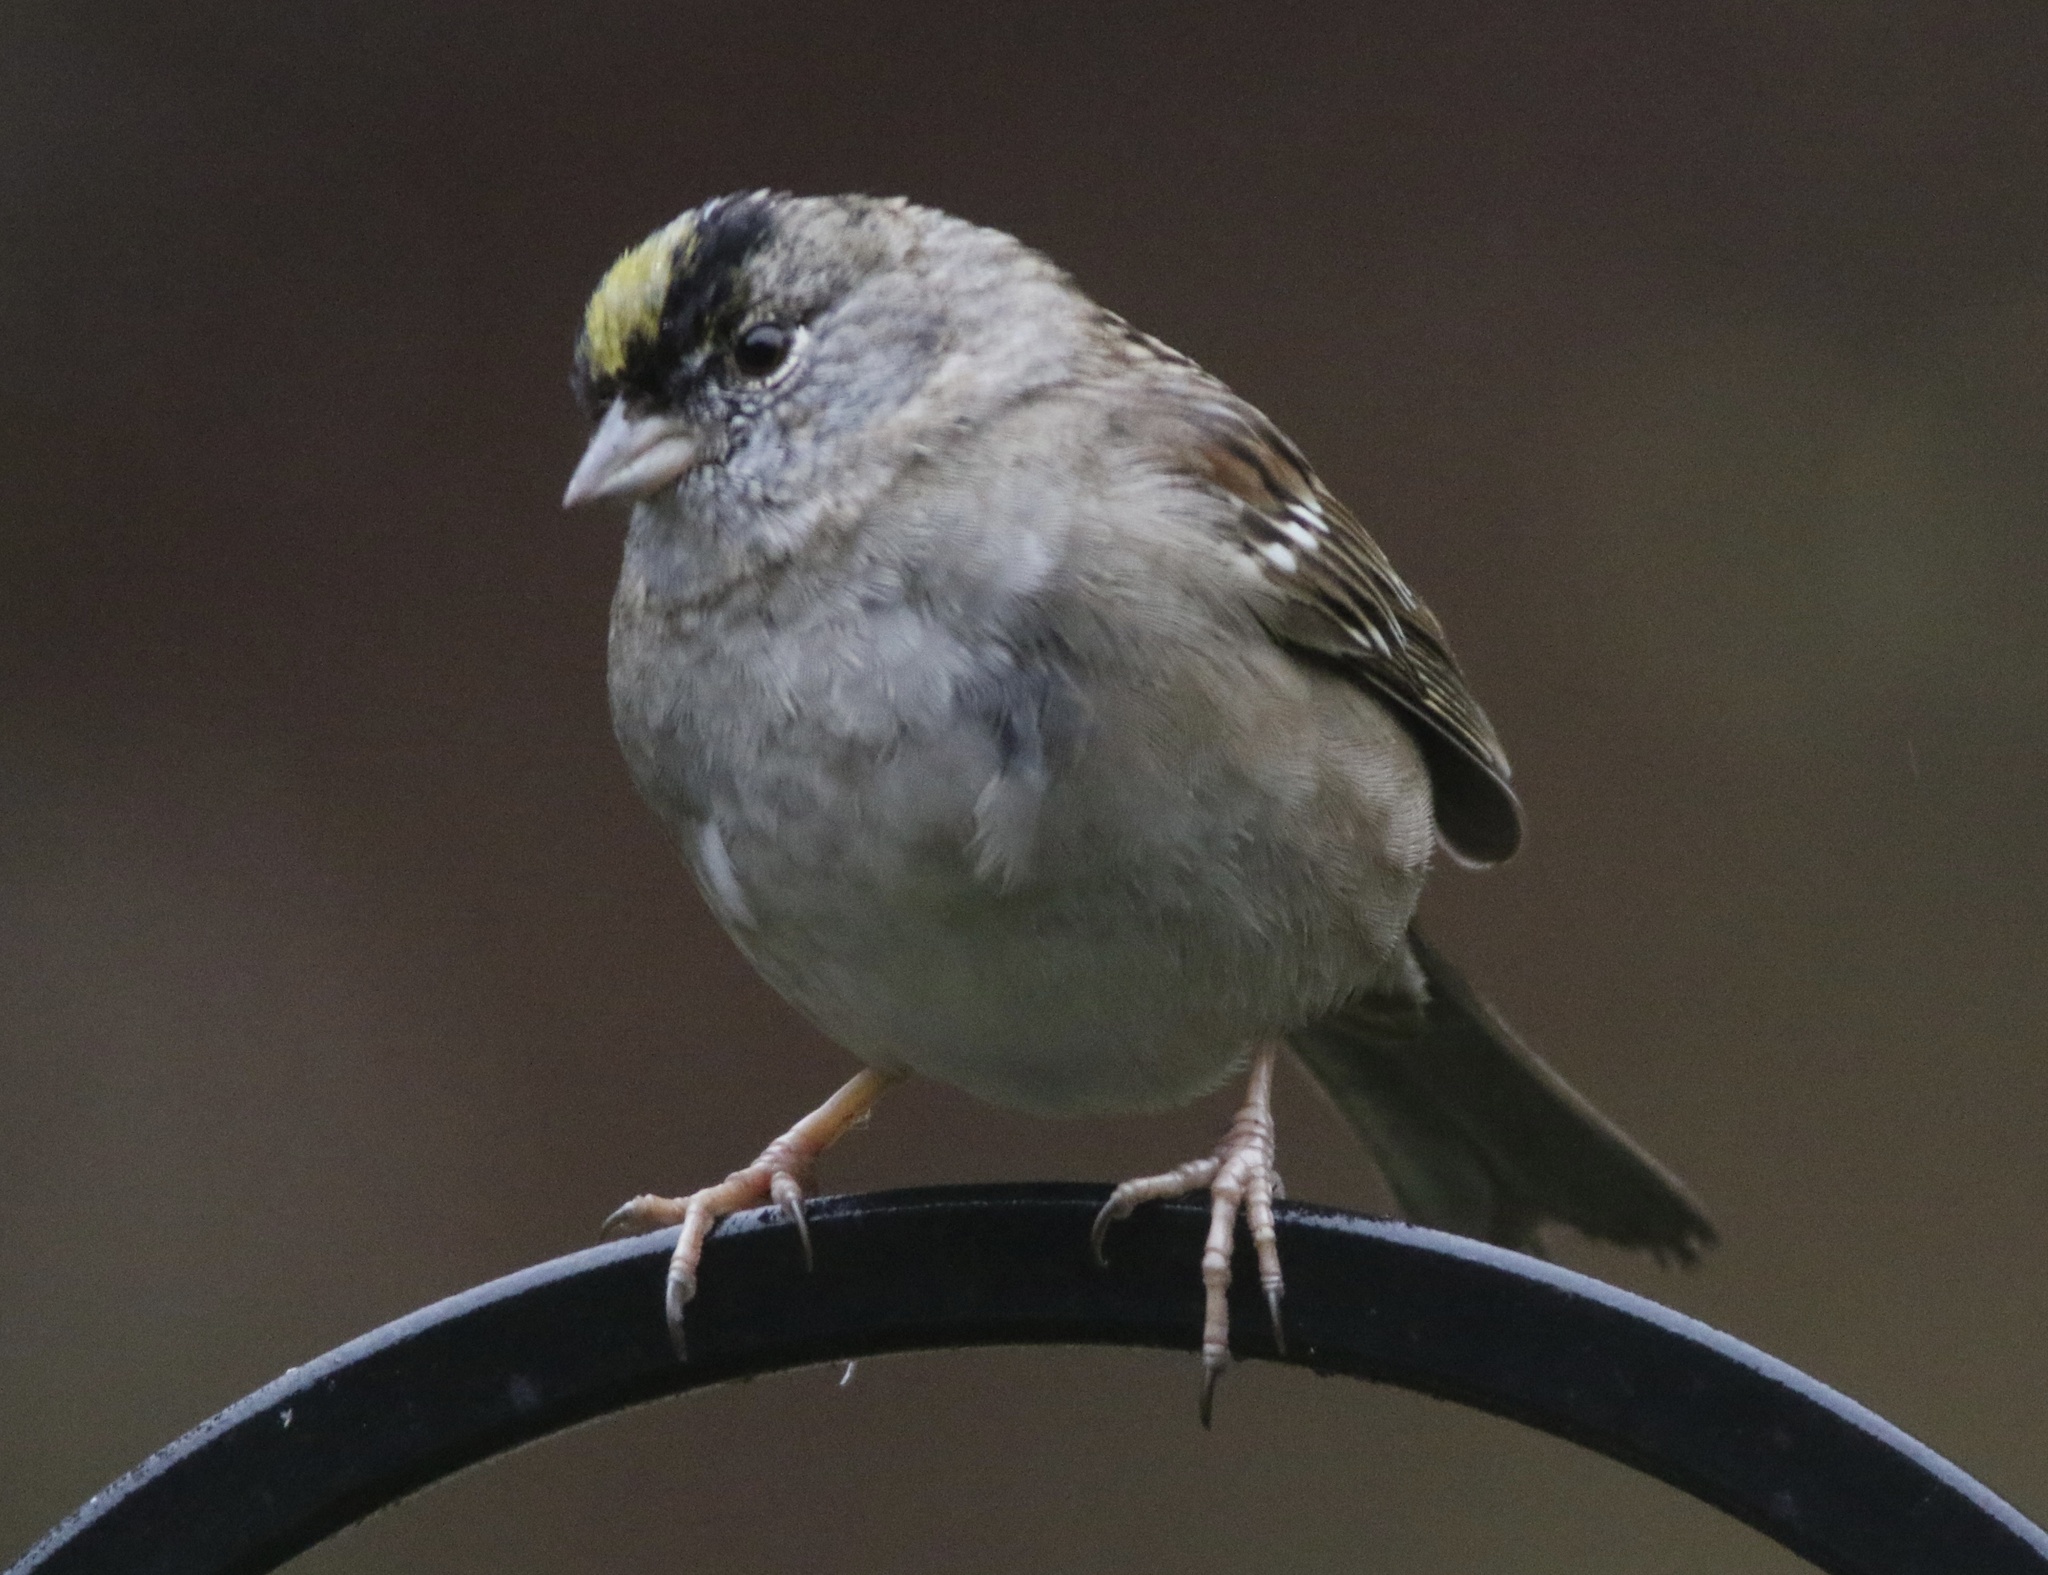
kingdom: Animalia
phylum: Chordata
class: Aves
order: Passeriformes
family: Passerellidae
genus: Zonotrichia
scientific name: Zonotrichia atricapilla
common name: Golden-crowned sparrow
